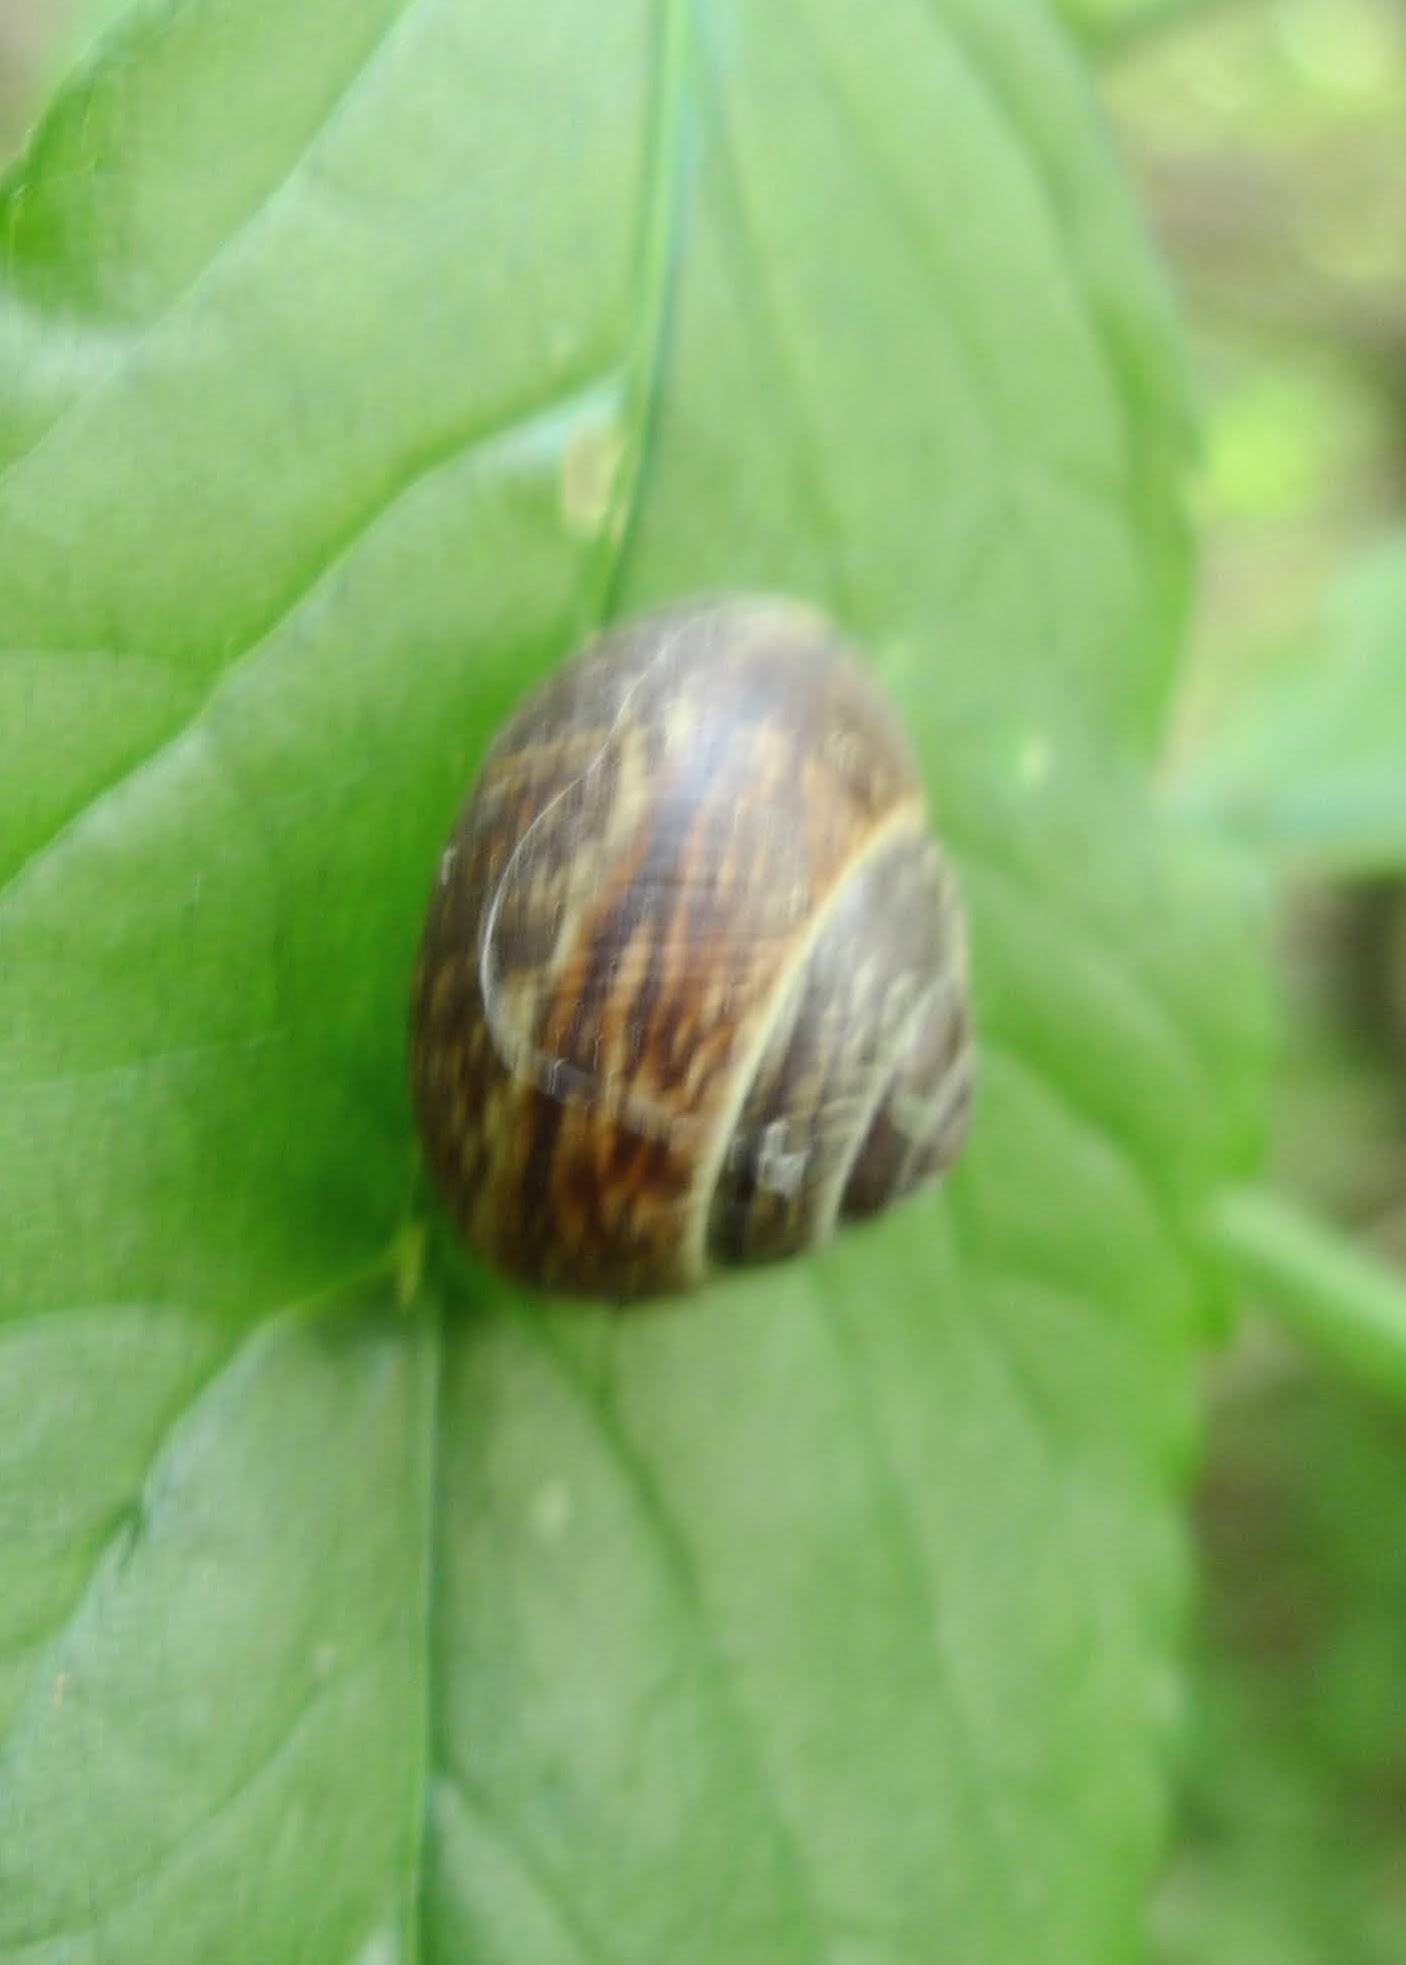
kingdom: Animalia
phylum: Mollusca
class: Gastropoda
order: Stylommatophora
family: Helicidae
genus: Arianta
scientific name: Arianta arbustorum
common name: Copse snail
